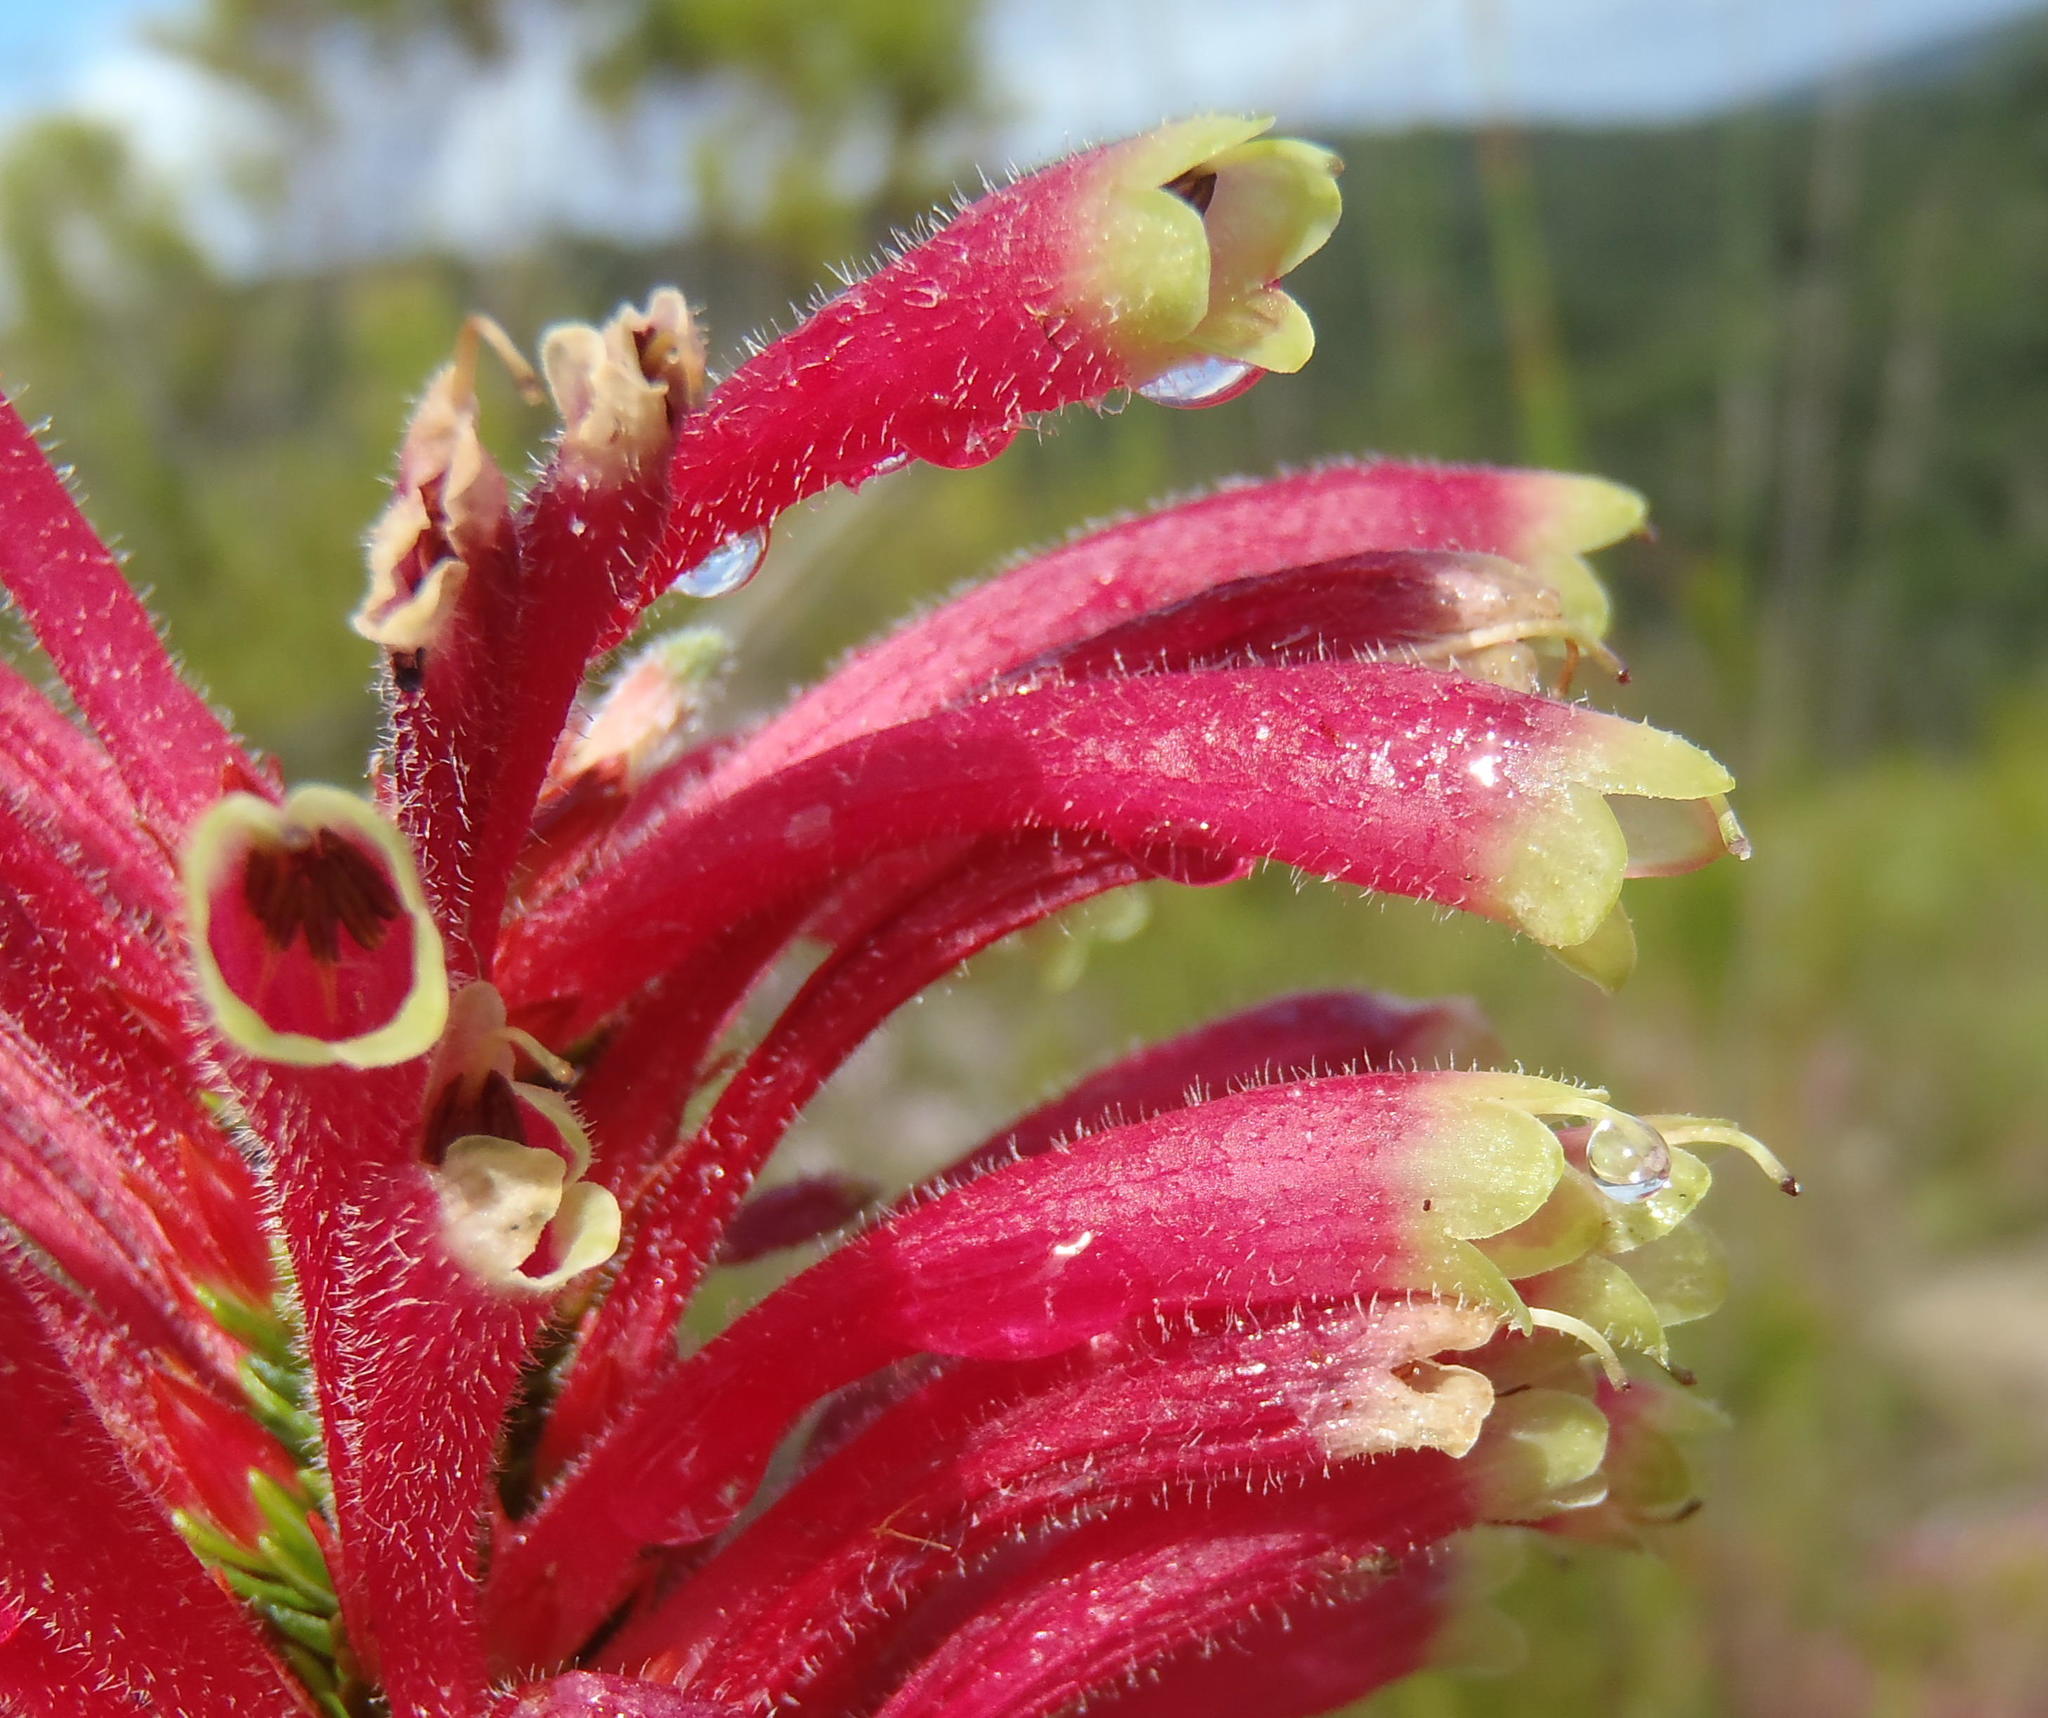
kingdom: Plantae
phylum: Tracheophyta
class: Magnoliopsida
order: Ericales
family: Ericaceae
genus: Erica
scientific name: Erica densifolia
